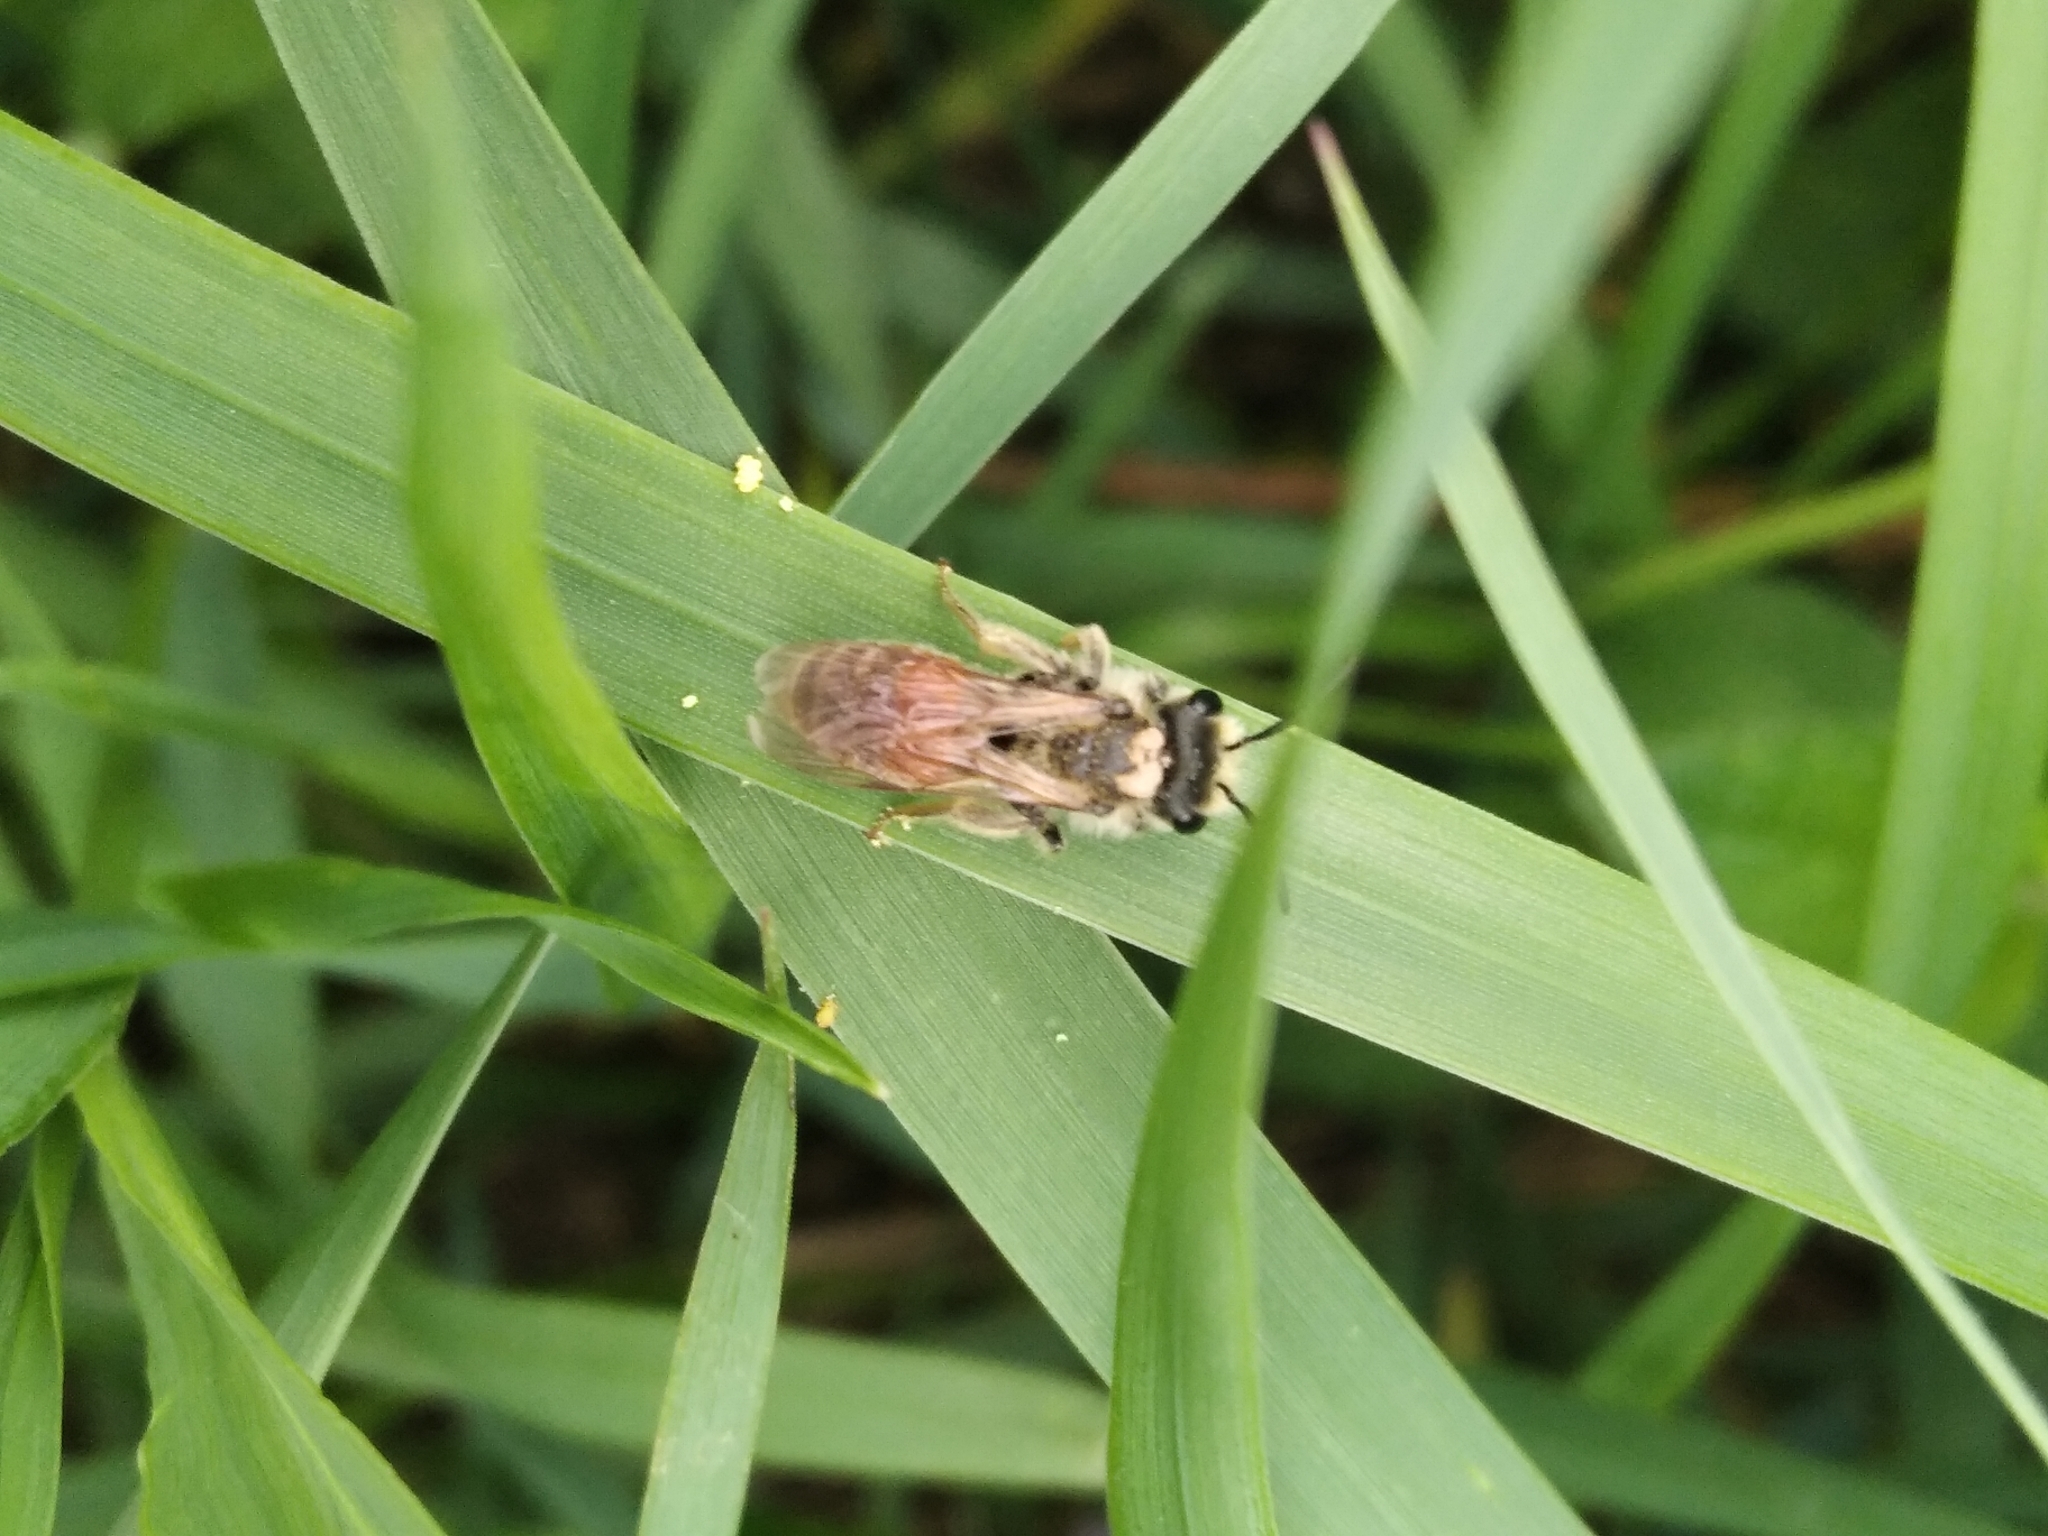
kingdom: Animalia
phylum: Arthropoda
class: Insecta
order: Hymenoptera
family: Andrenidae
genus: Andrena
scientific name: Andrena
